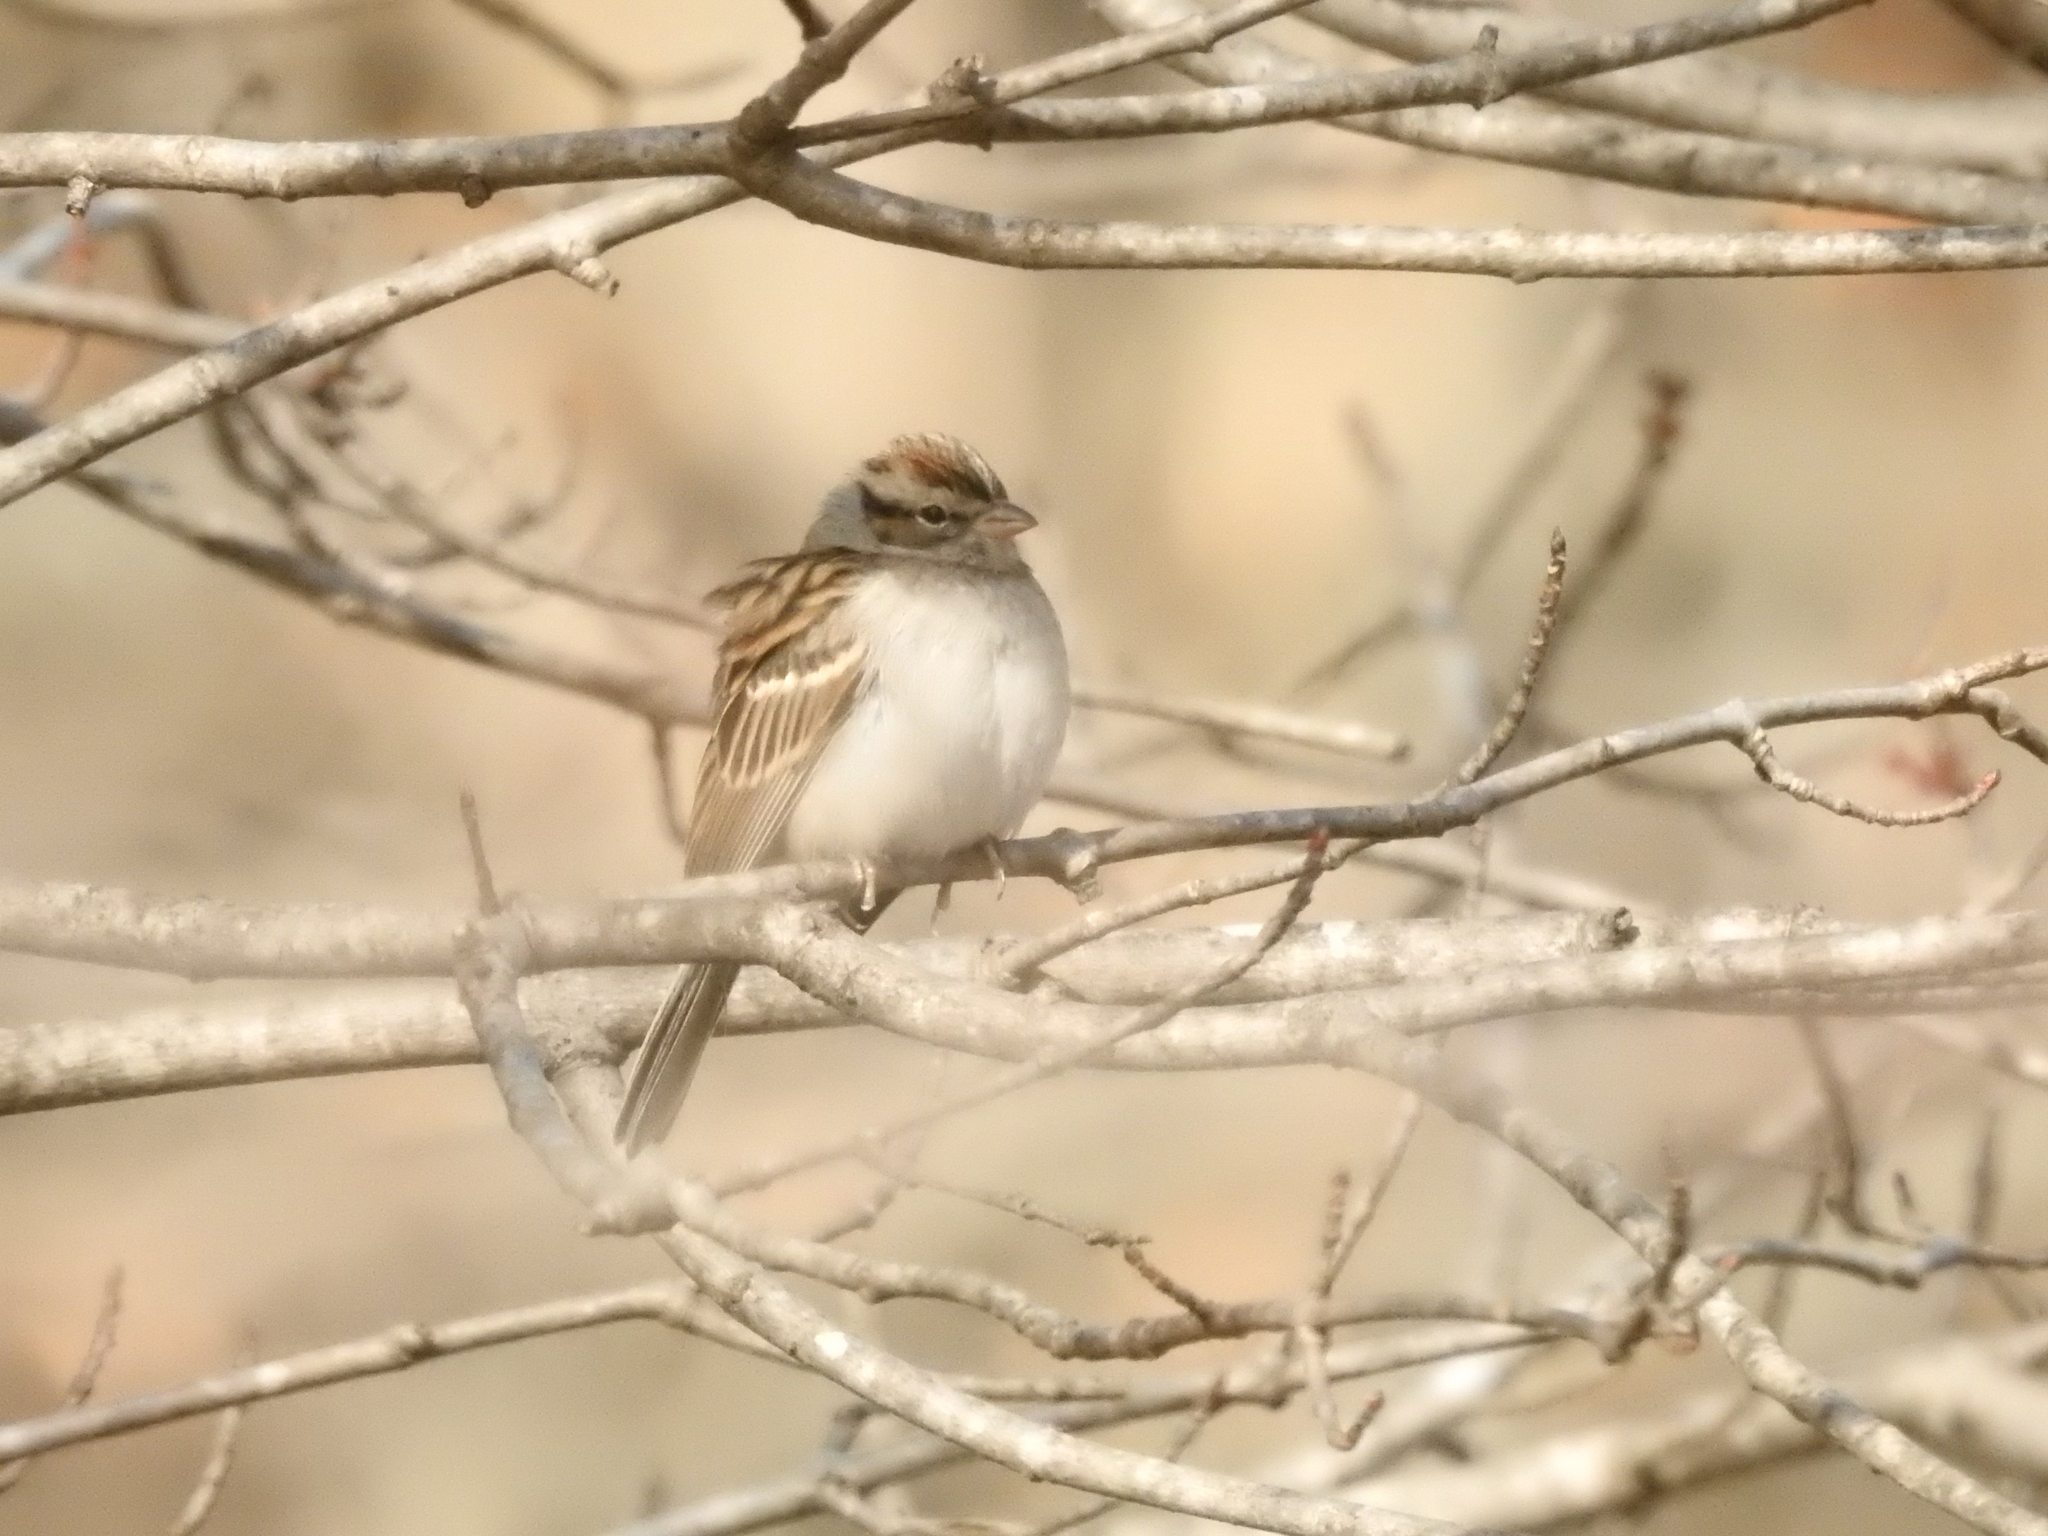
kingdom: Animalia
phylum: Chordata
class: Aves
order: Passeriformes
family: Passerellidae
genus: Spizella
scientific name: Spizella passerina
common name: Chipping sparrow
